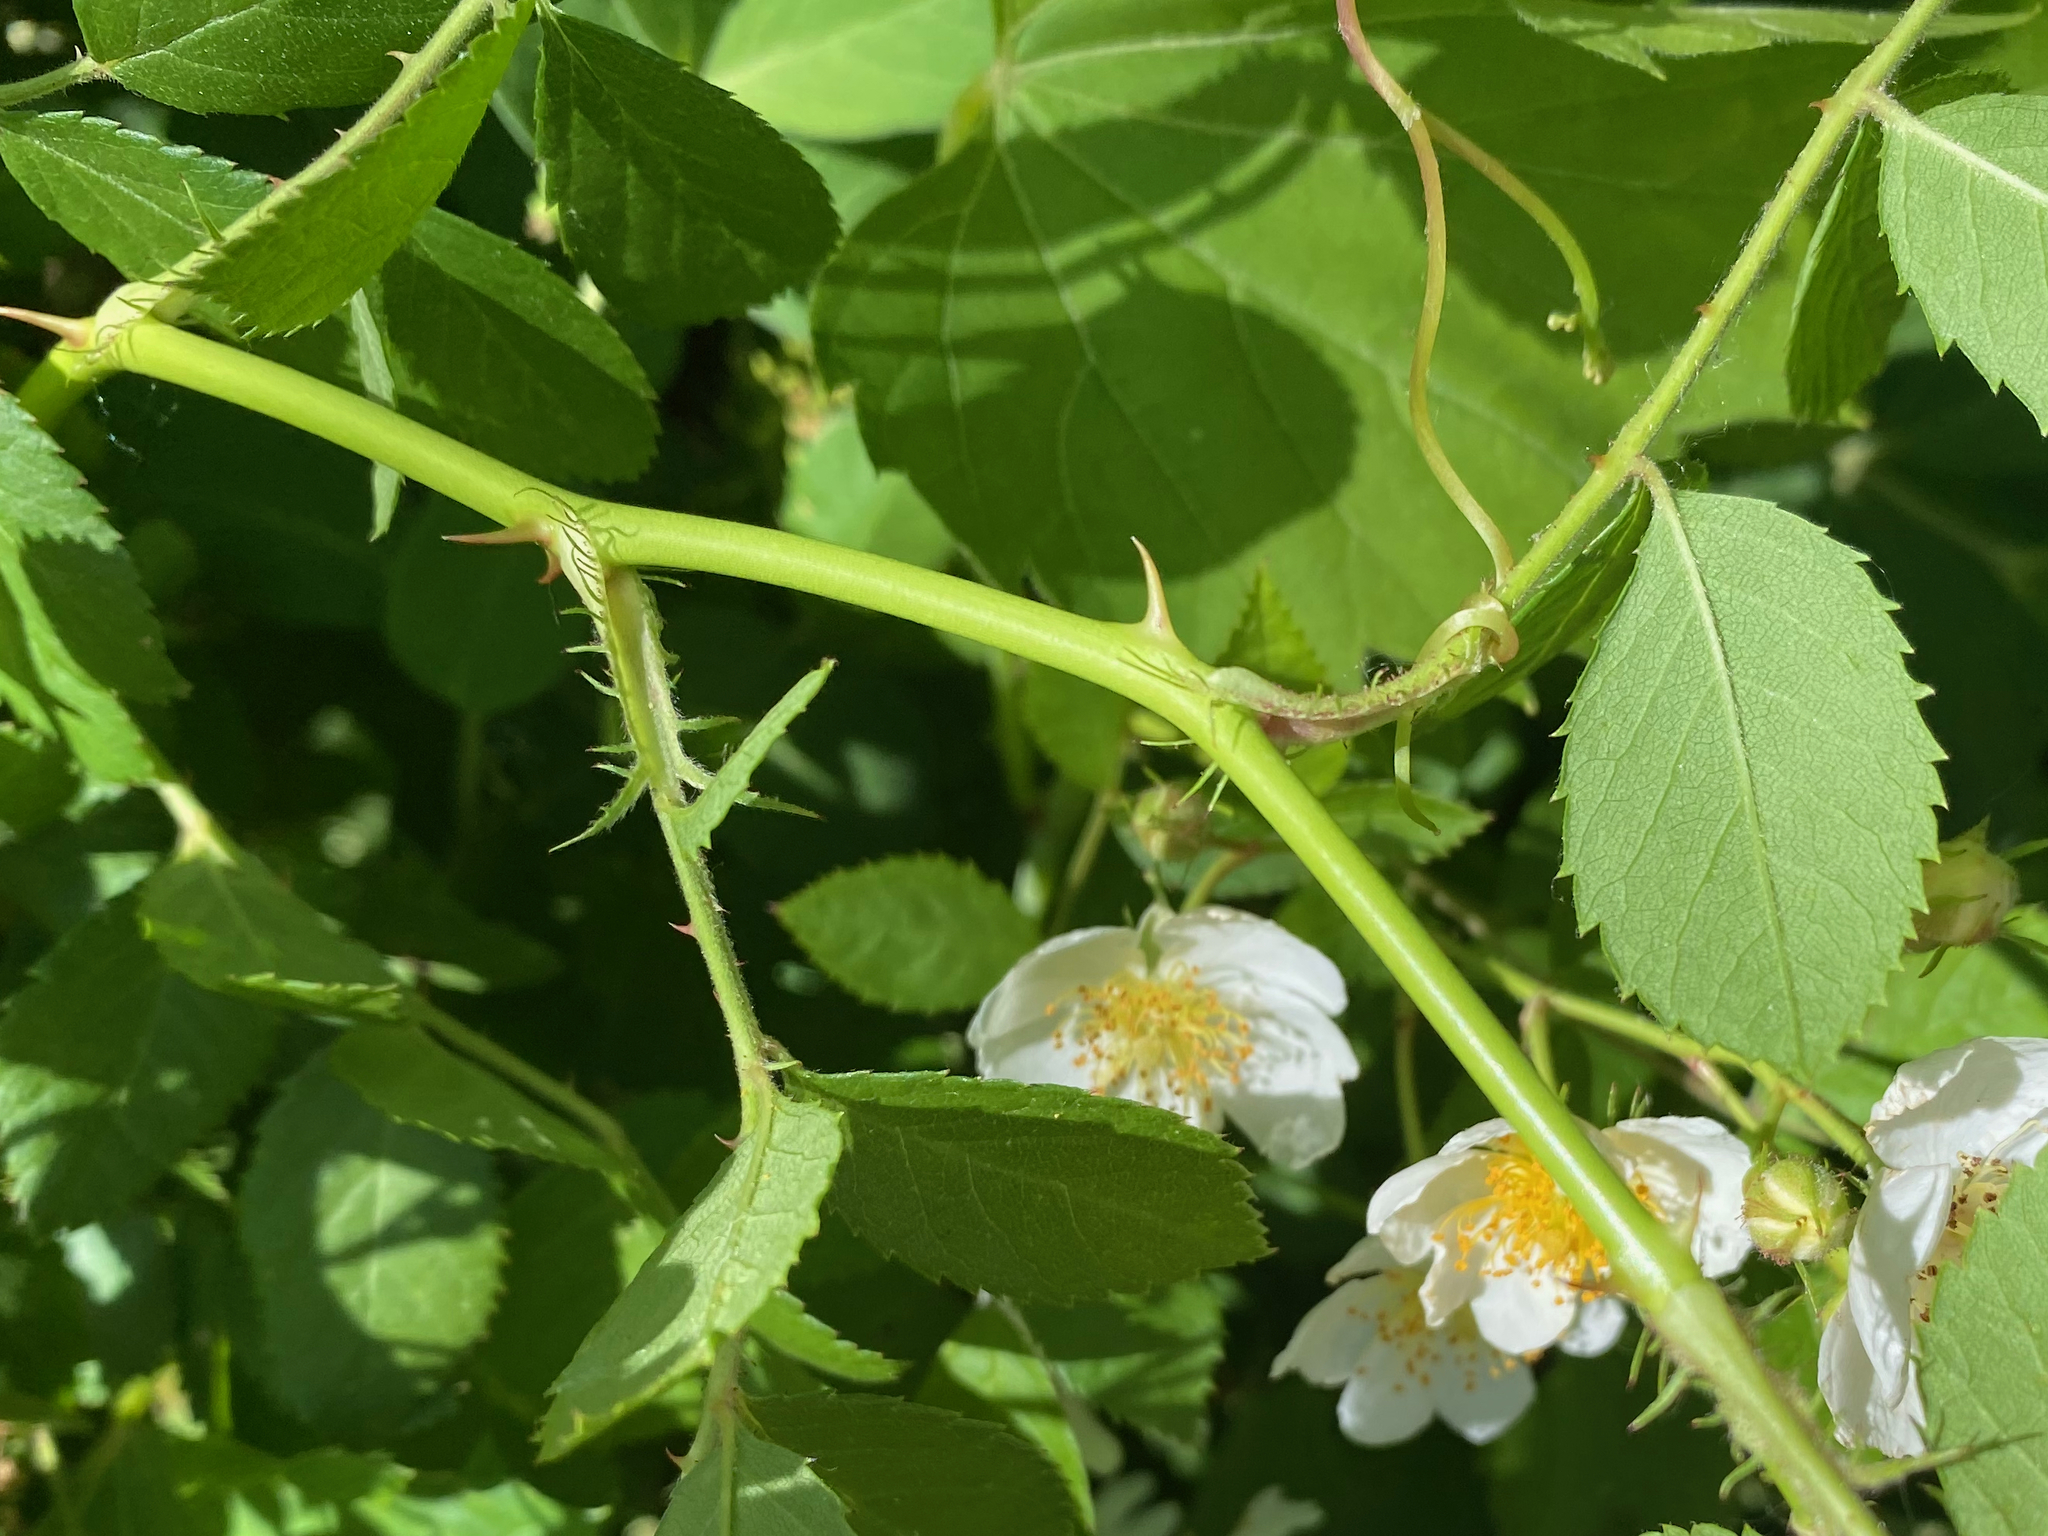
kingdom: Plantae
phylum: Tracheophyta
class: Magnoliopsida
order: Rosales
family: Rosaceae
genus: Rosa
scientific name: Rosa multiflora
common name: Multiflora rose
